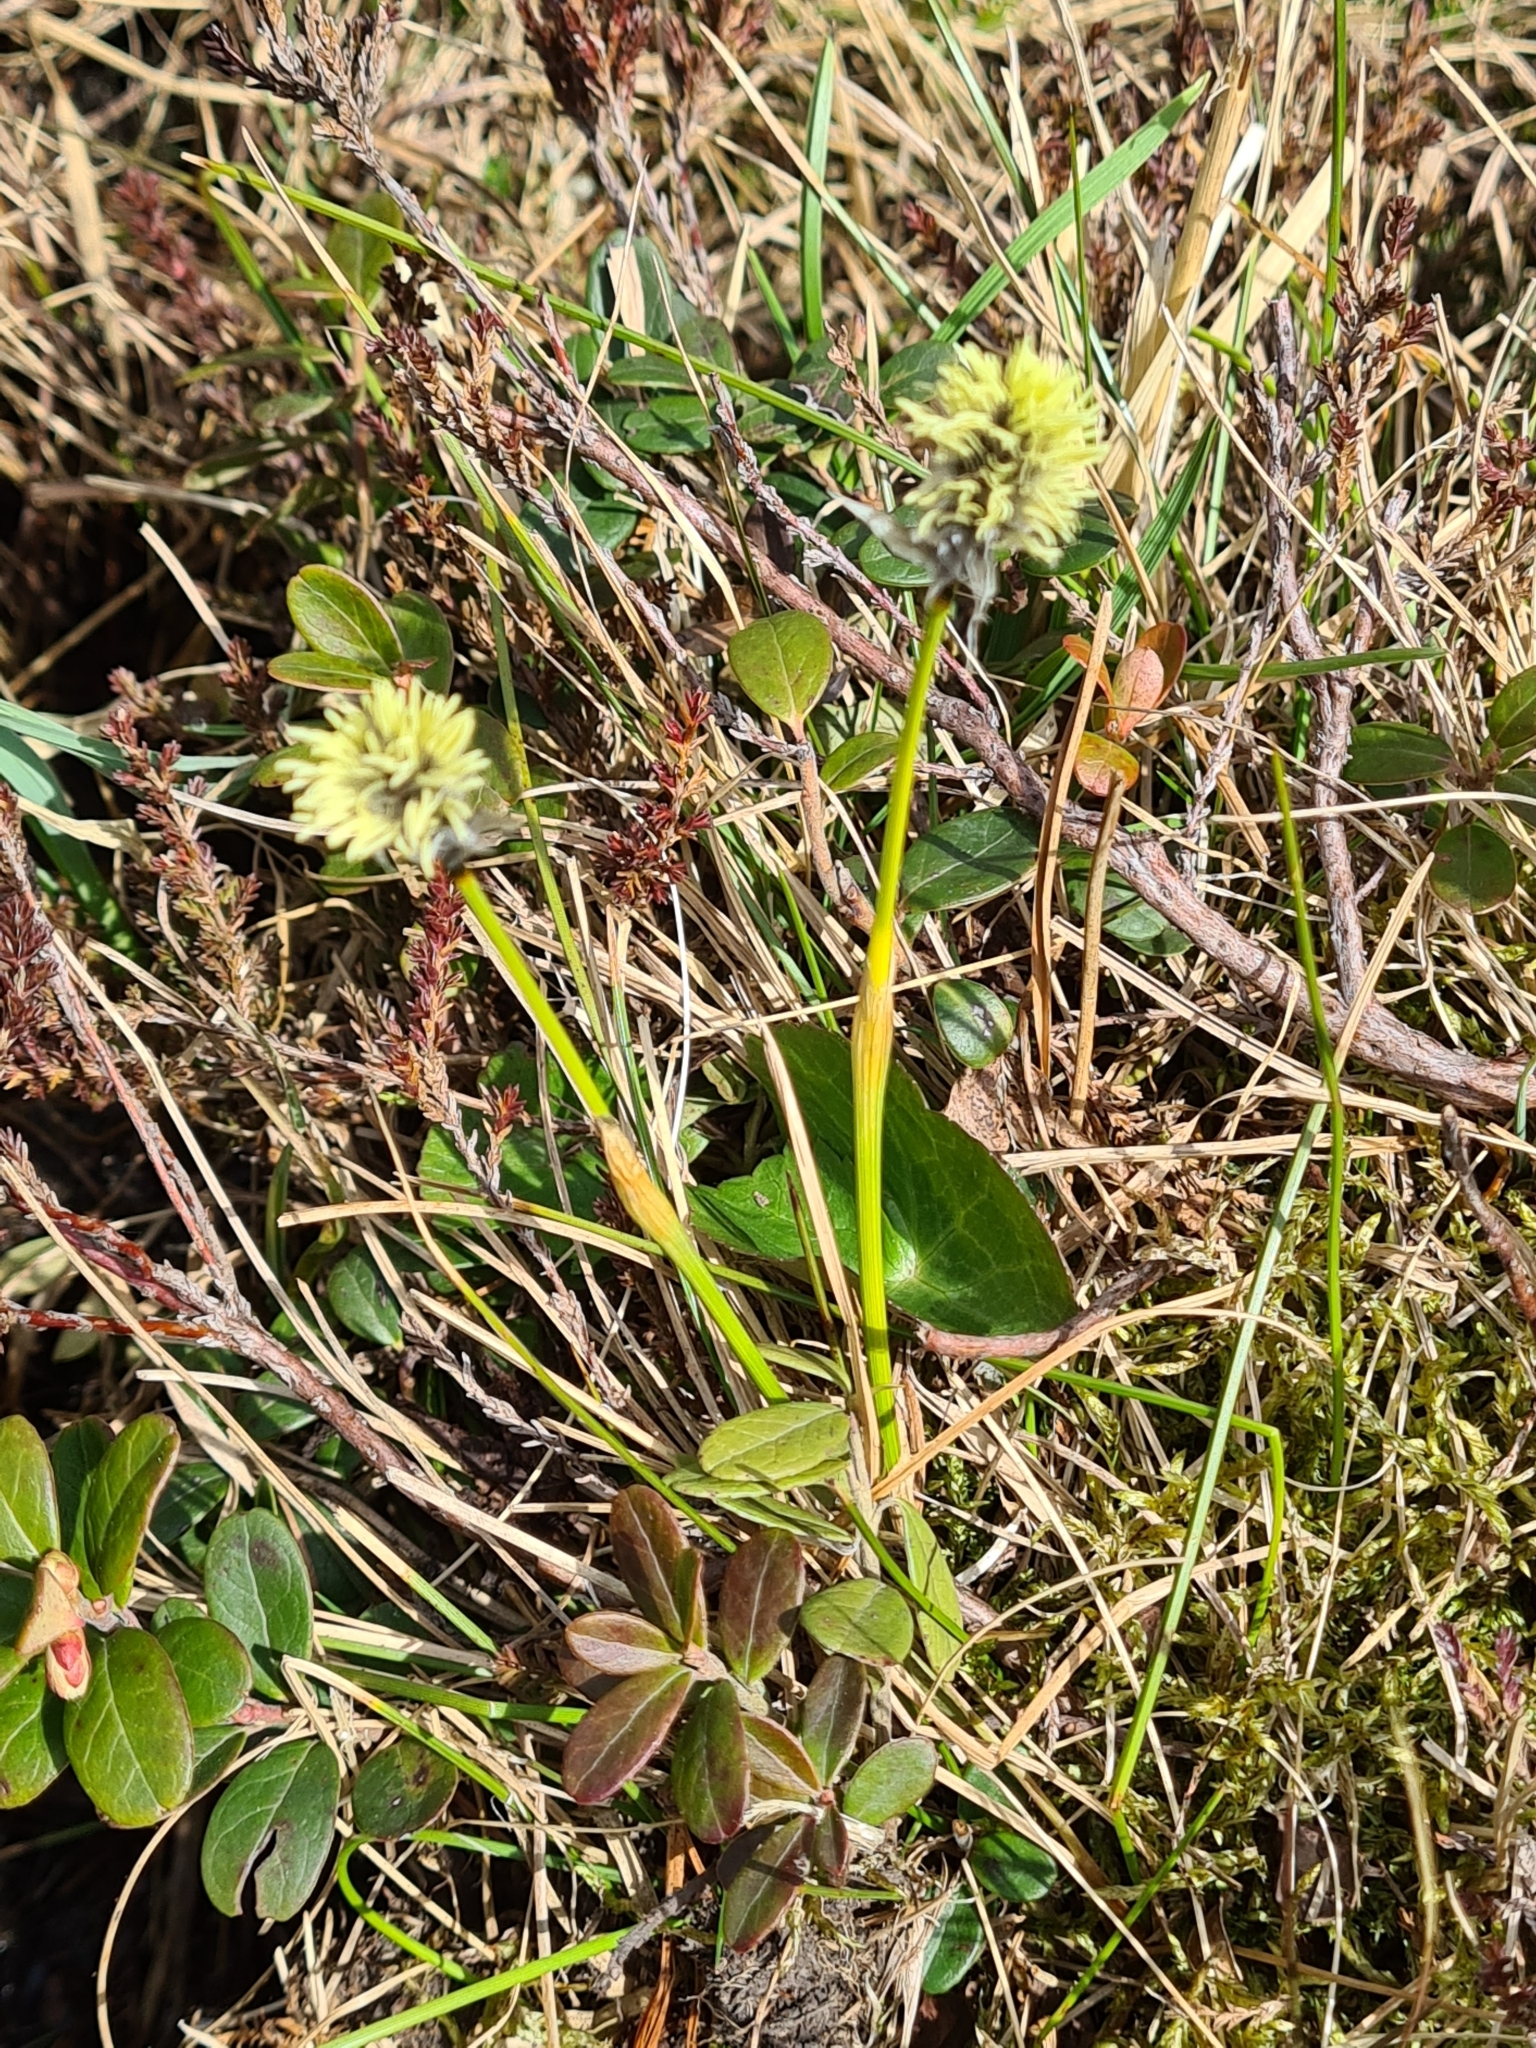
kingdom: Plantae
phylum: Tracheophyta
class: Liliopsida
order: Poales
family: Cyperaceae
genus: Eriophorum
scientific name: Eriophorum vaginatum
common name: Hare's-tail cottongrass
